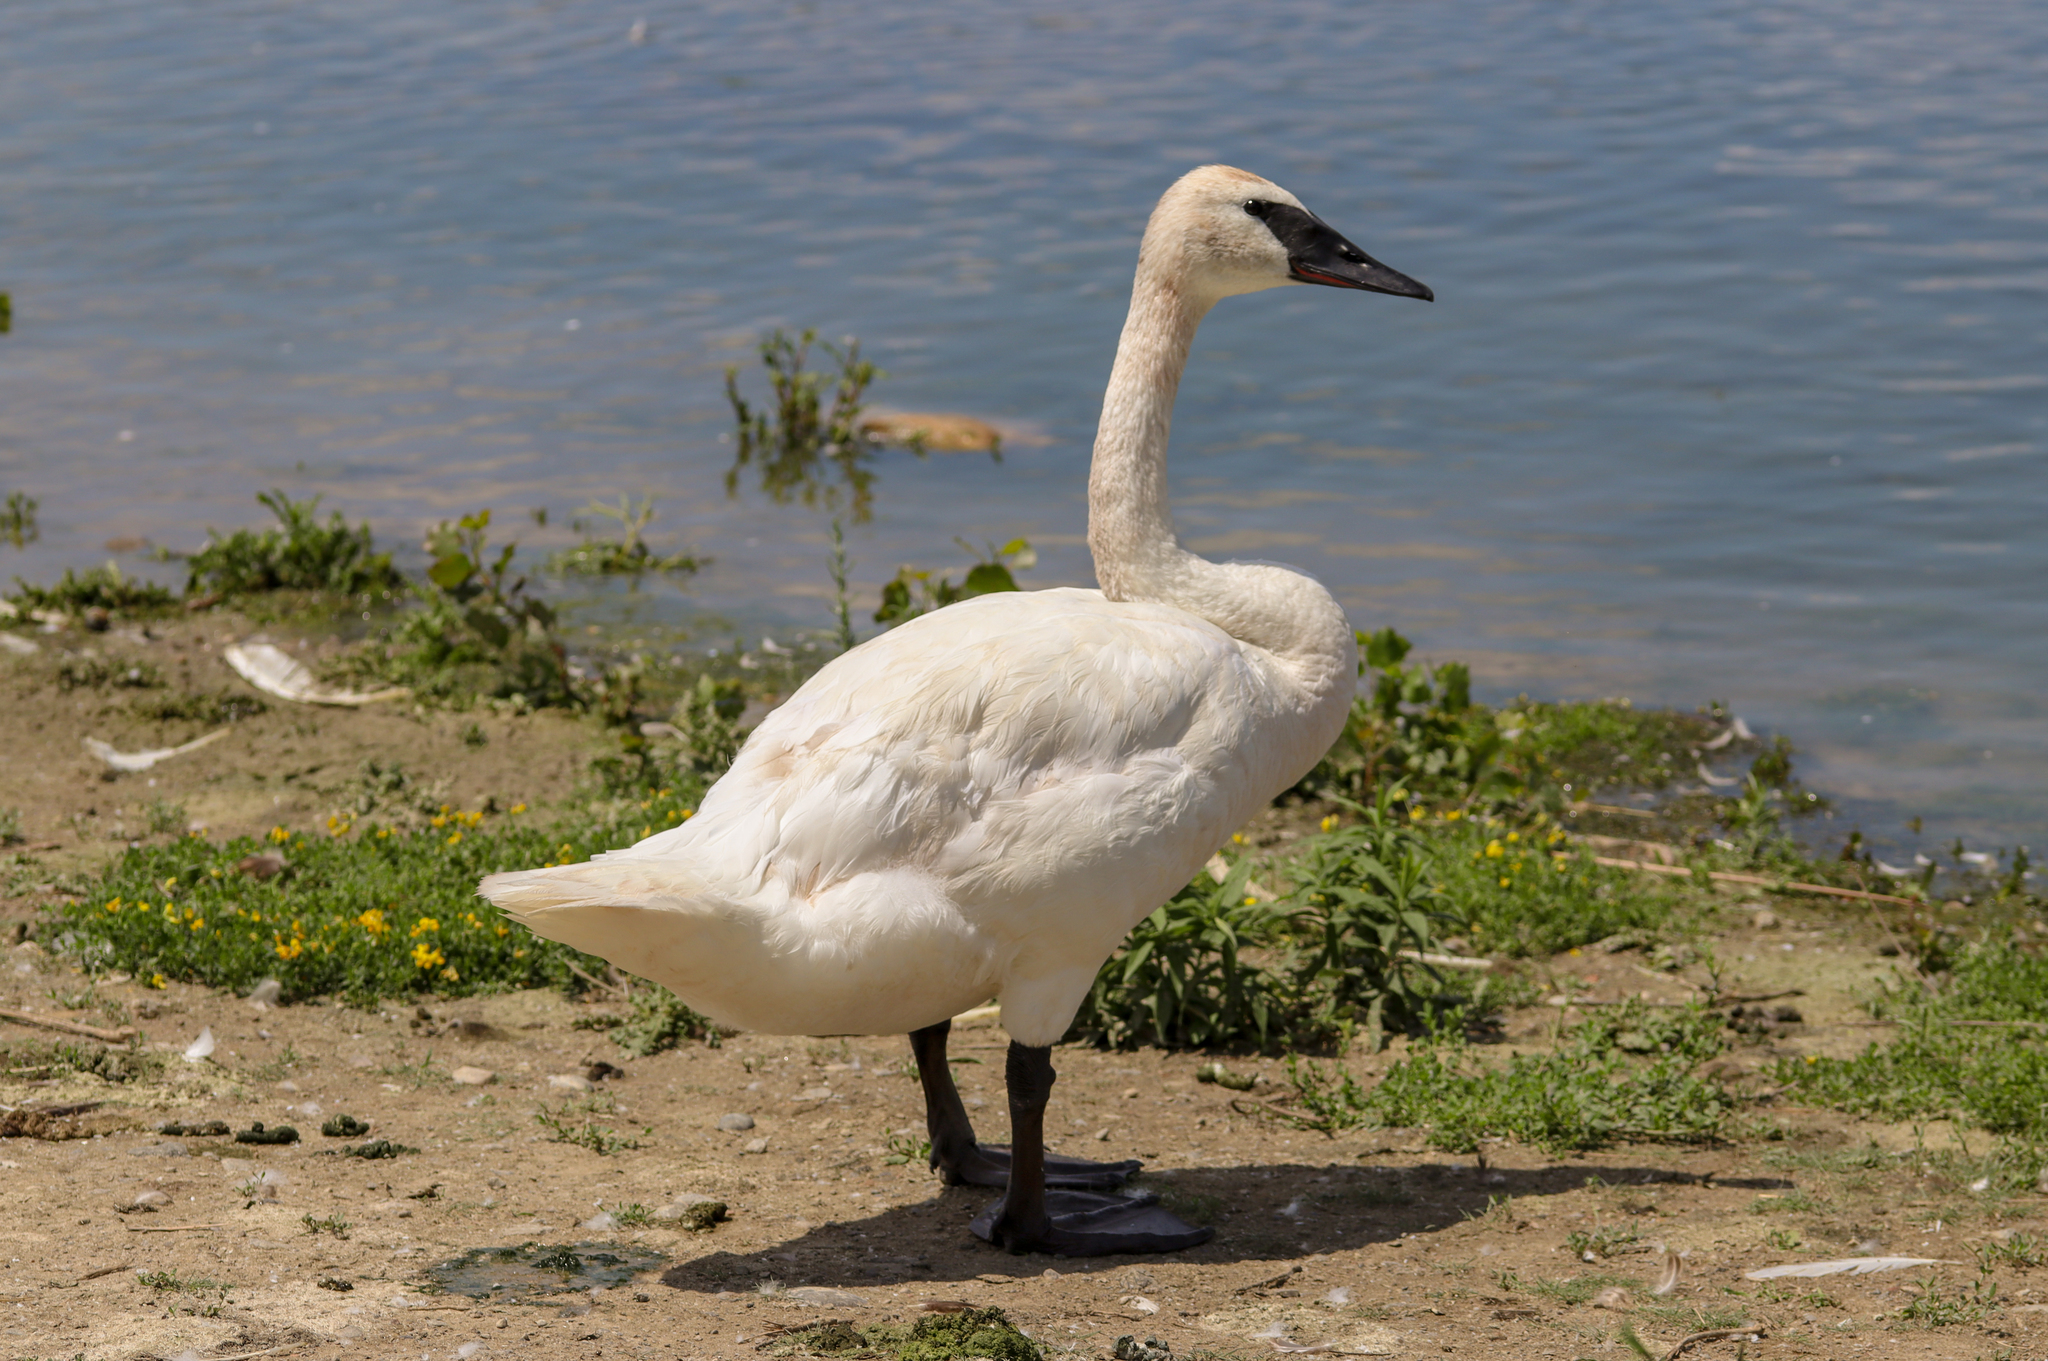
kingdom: Animalia
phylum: Chordata
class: Aves
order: Anseriformes
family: Anatidae
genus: Cygnus
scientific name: Cygnus buccinator
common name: Trumpeter swan
